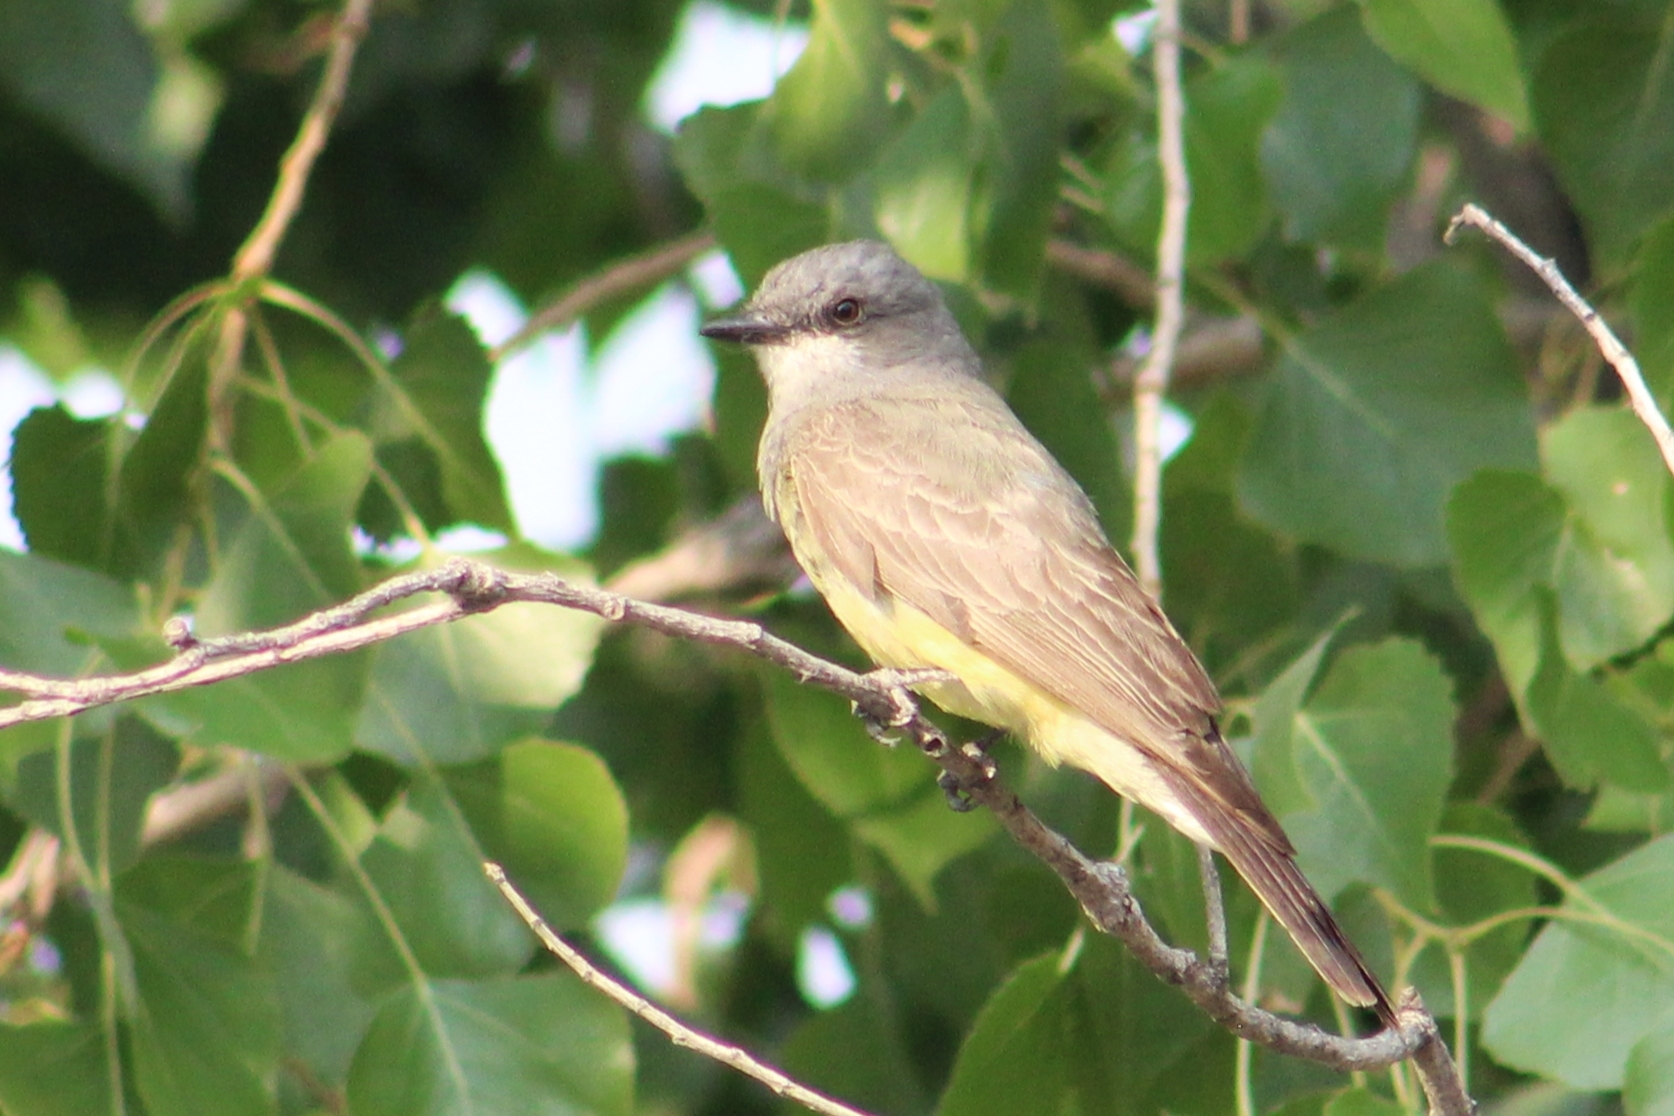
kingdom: Animalia
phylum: Chordata
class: Aves
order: Passeriformes
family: Tyrannidae
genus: Tyrannus
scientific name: Tyrannus vociferans
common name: Cassin's kingbird
